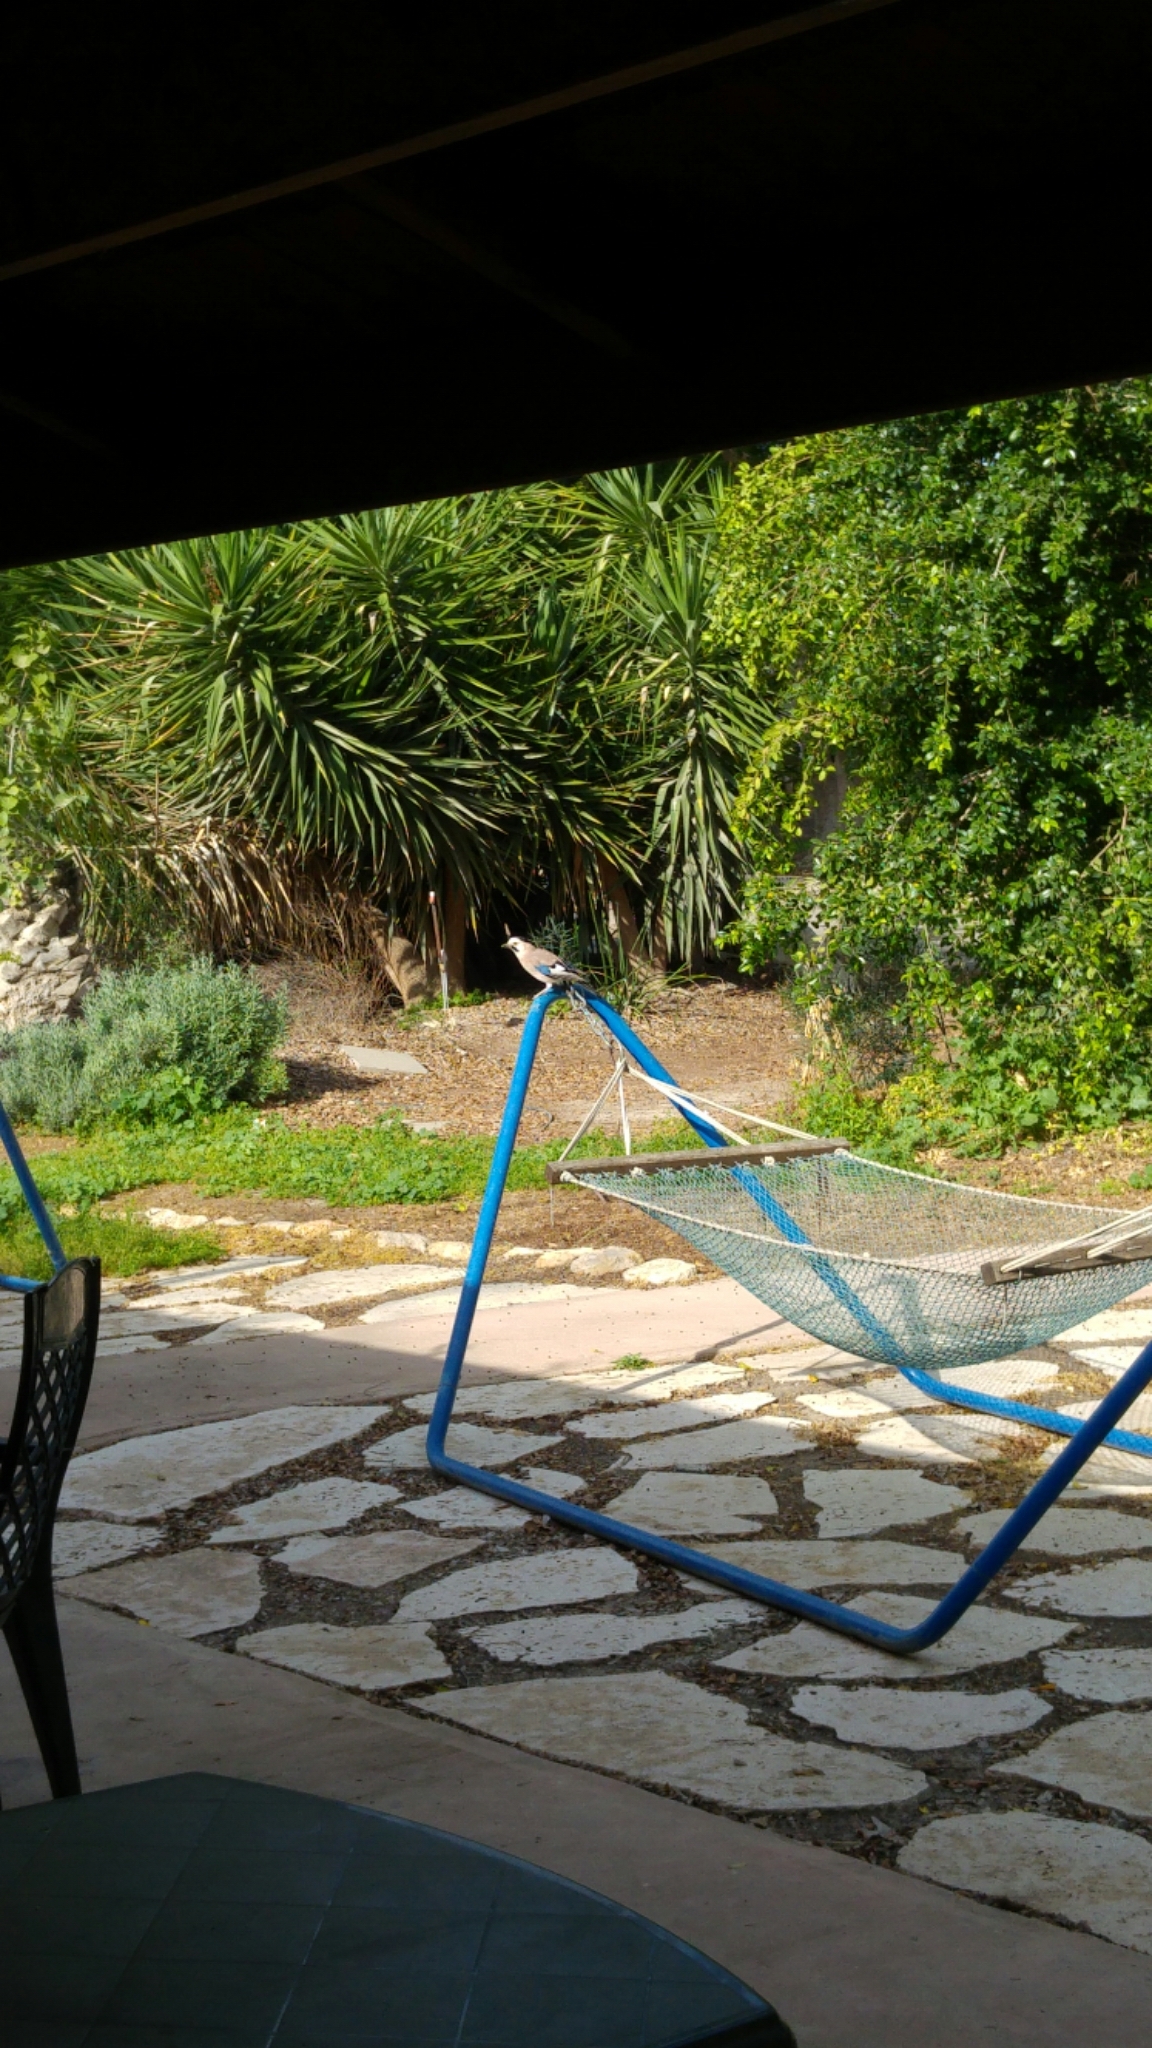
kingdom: Animalia
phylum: Chordata
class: Aves
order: Passeriformes
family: Corvidae
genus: Garrulus
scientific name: Garrulus glandarius
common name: Eurasian jay
